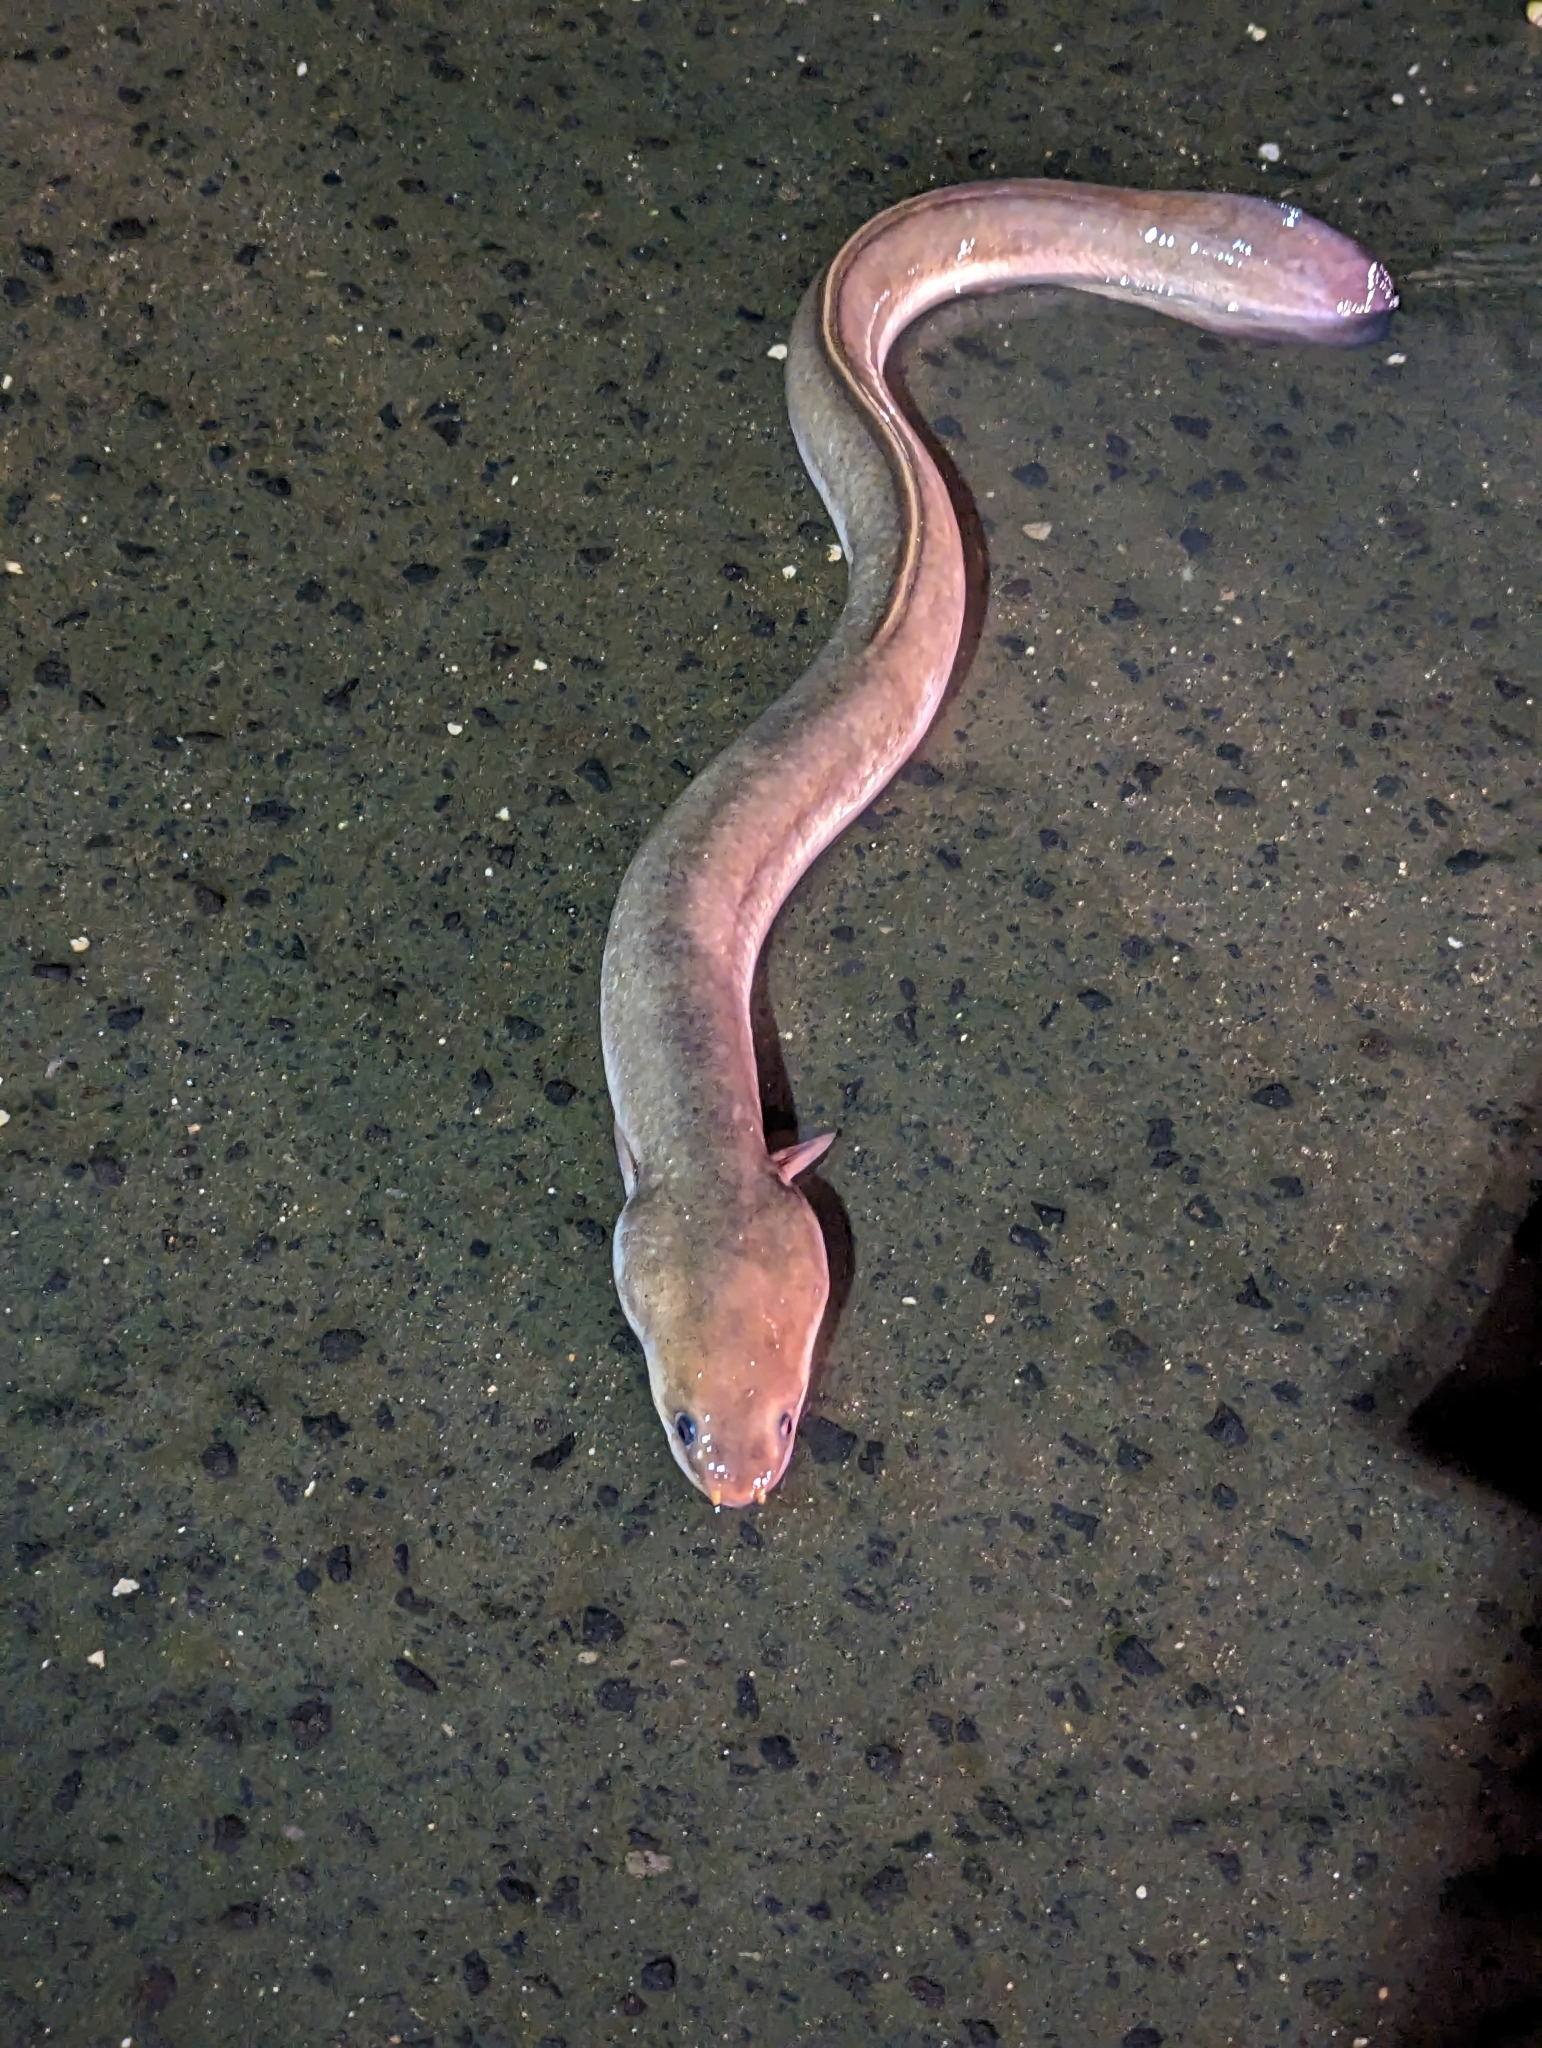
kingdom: Animalia
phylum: Chordata
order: Anguilliformes
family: Anguillidae
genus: Anguilla
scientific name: Anguilla marmorata
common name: Giant mottled eel
